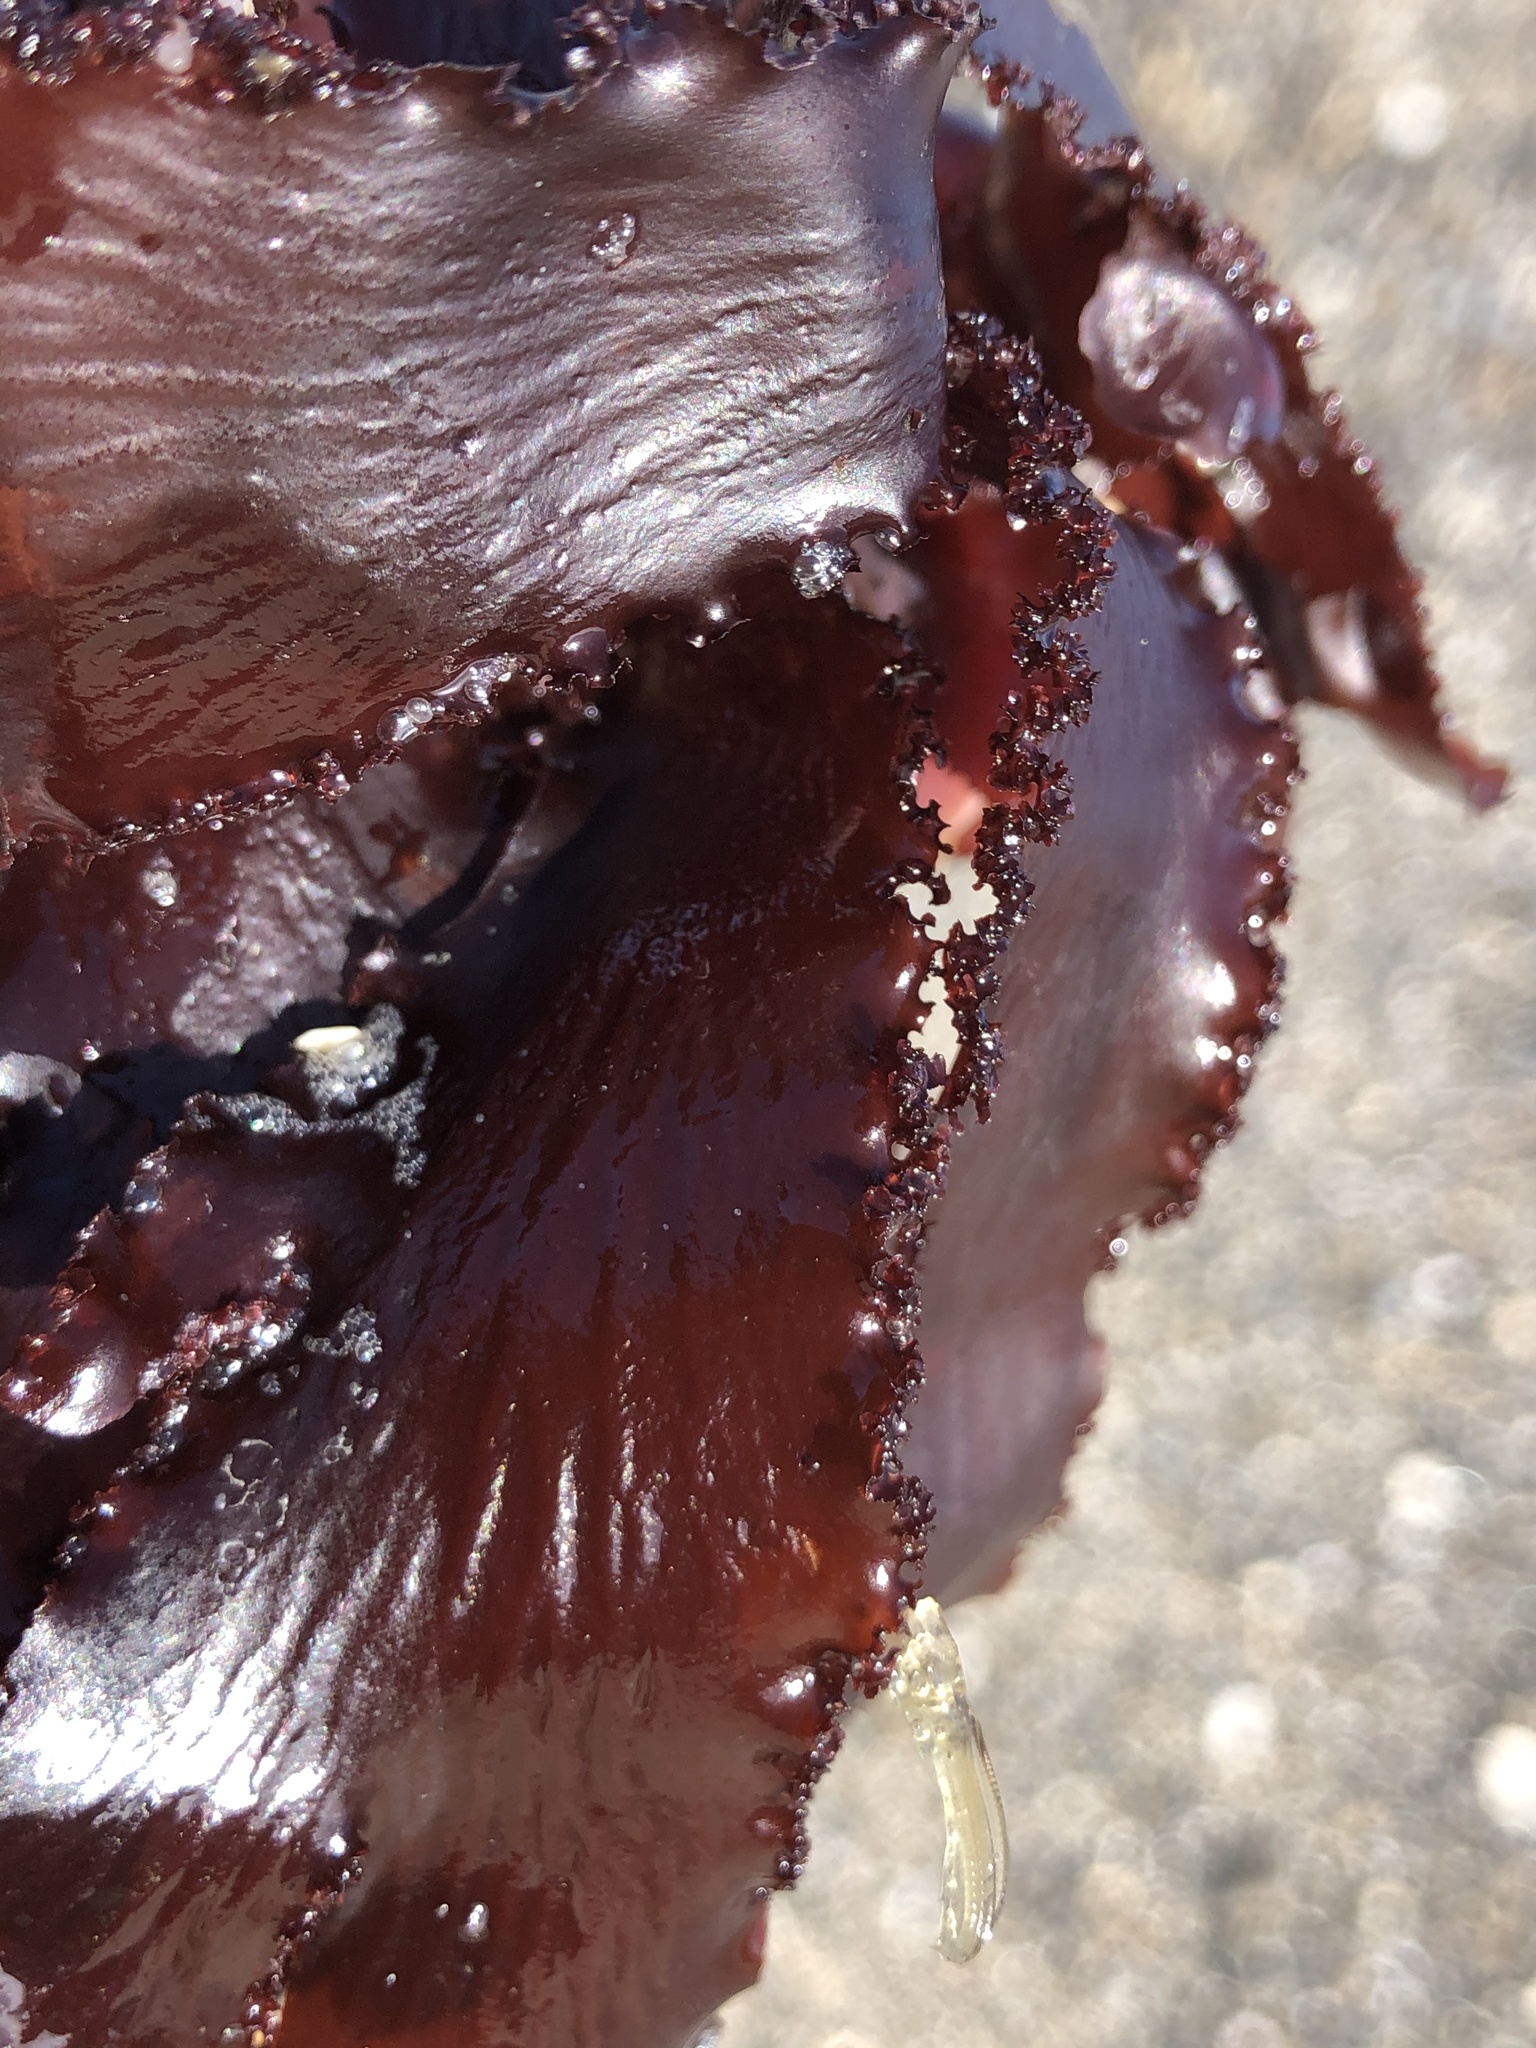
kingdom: Plantae
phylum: Rhodophyta
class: Florideophyceae
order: Ceramiales
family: Delesseriaceae
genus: Cryptopleura
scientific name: Cryptopleura ruprechtiana
